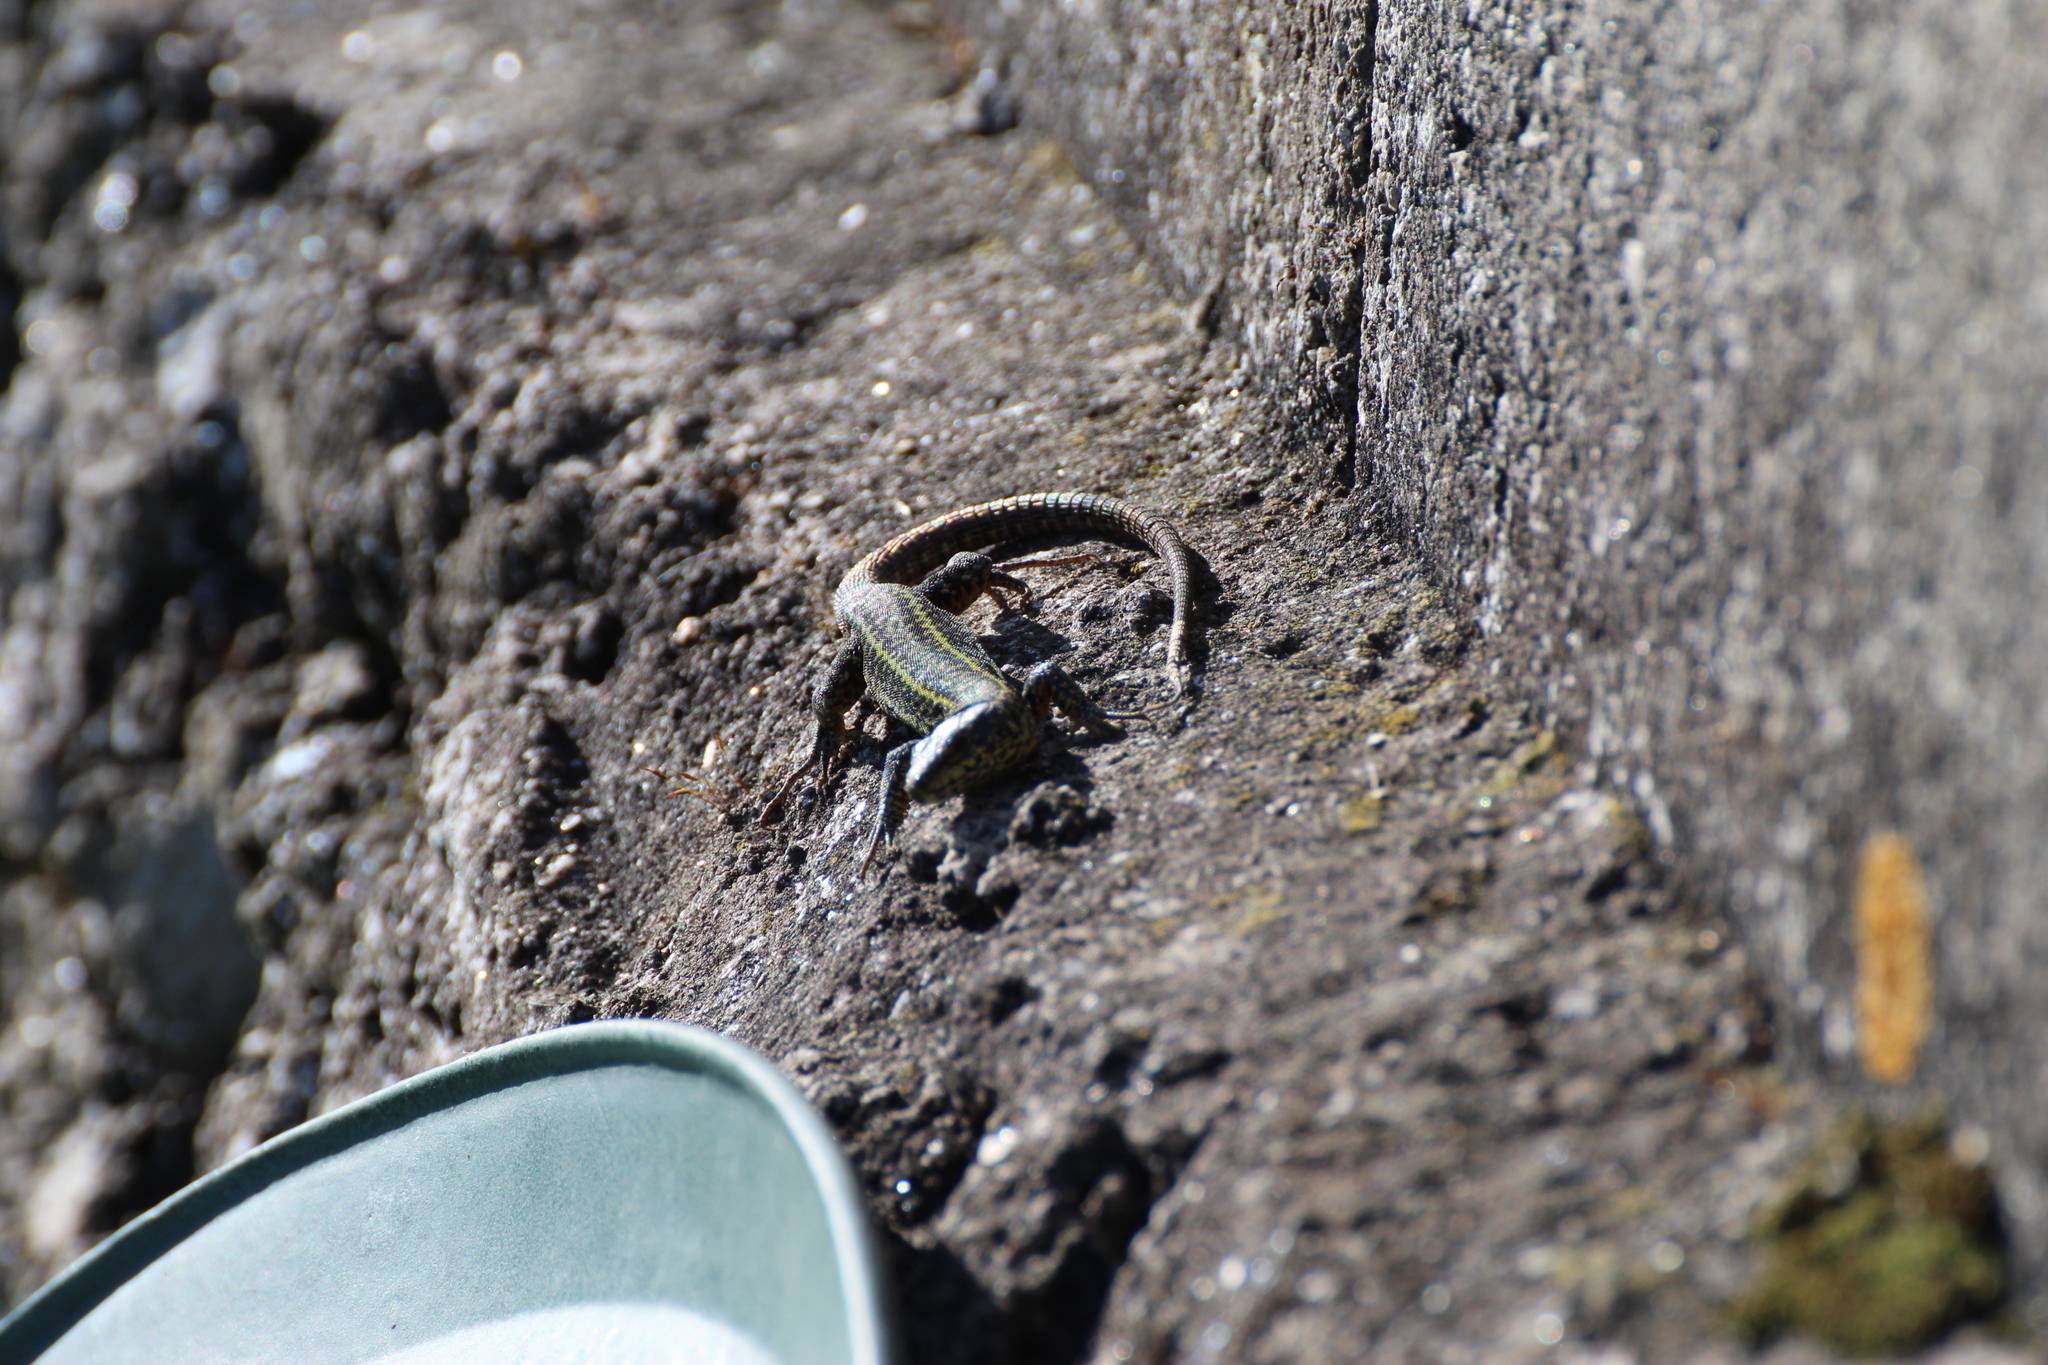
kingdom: Animalia
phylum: Chordata
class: Squamata
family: Lacertidae
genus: Podarcis
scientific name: Podarcis bocagei
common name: Bocage's wall lizard
